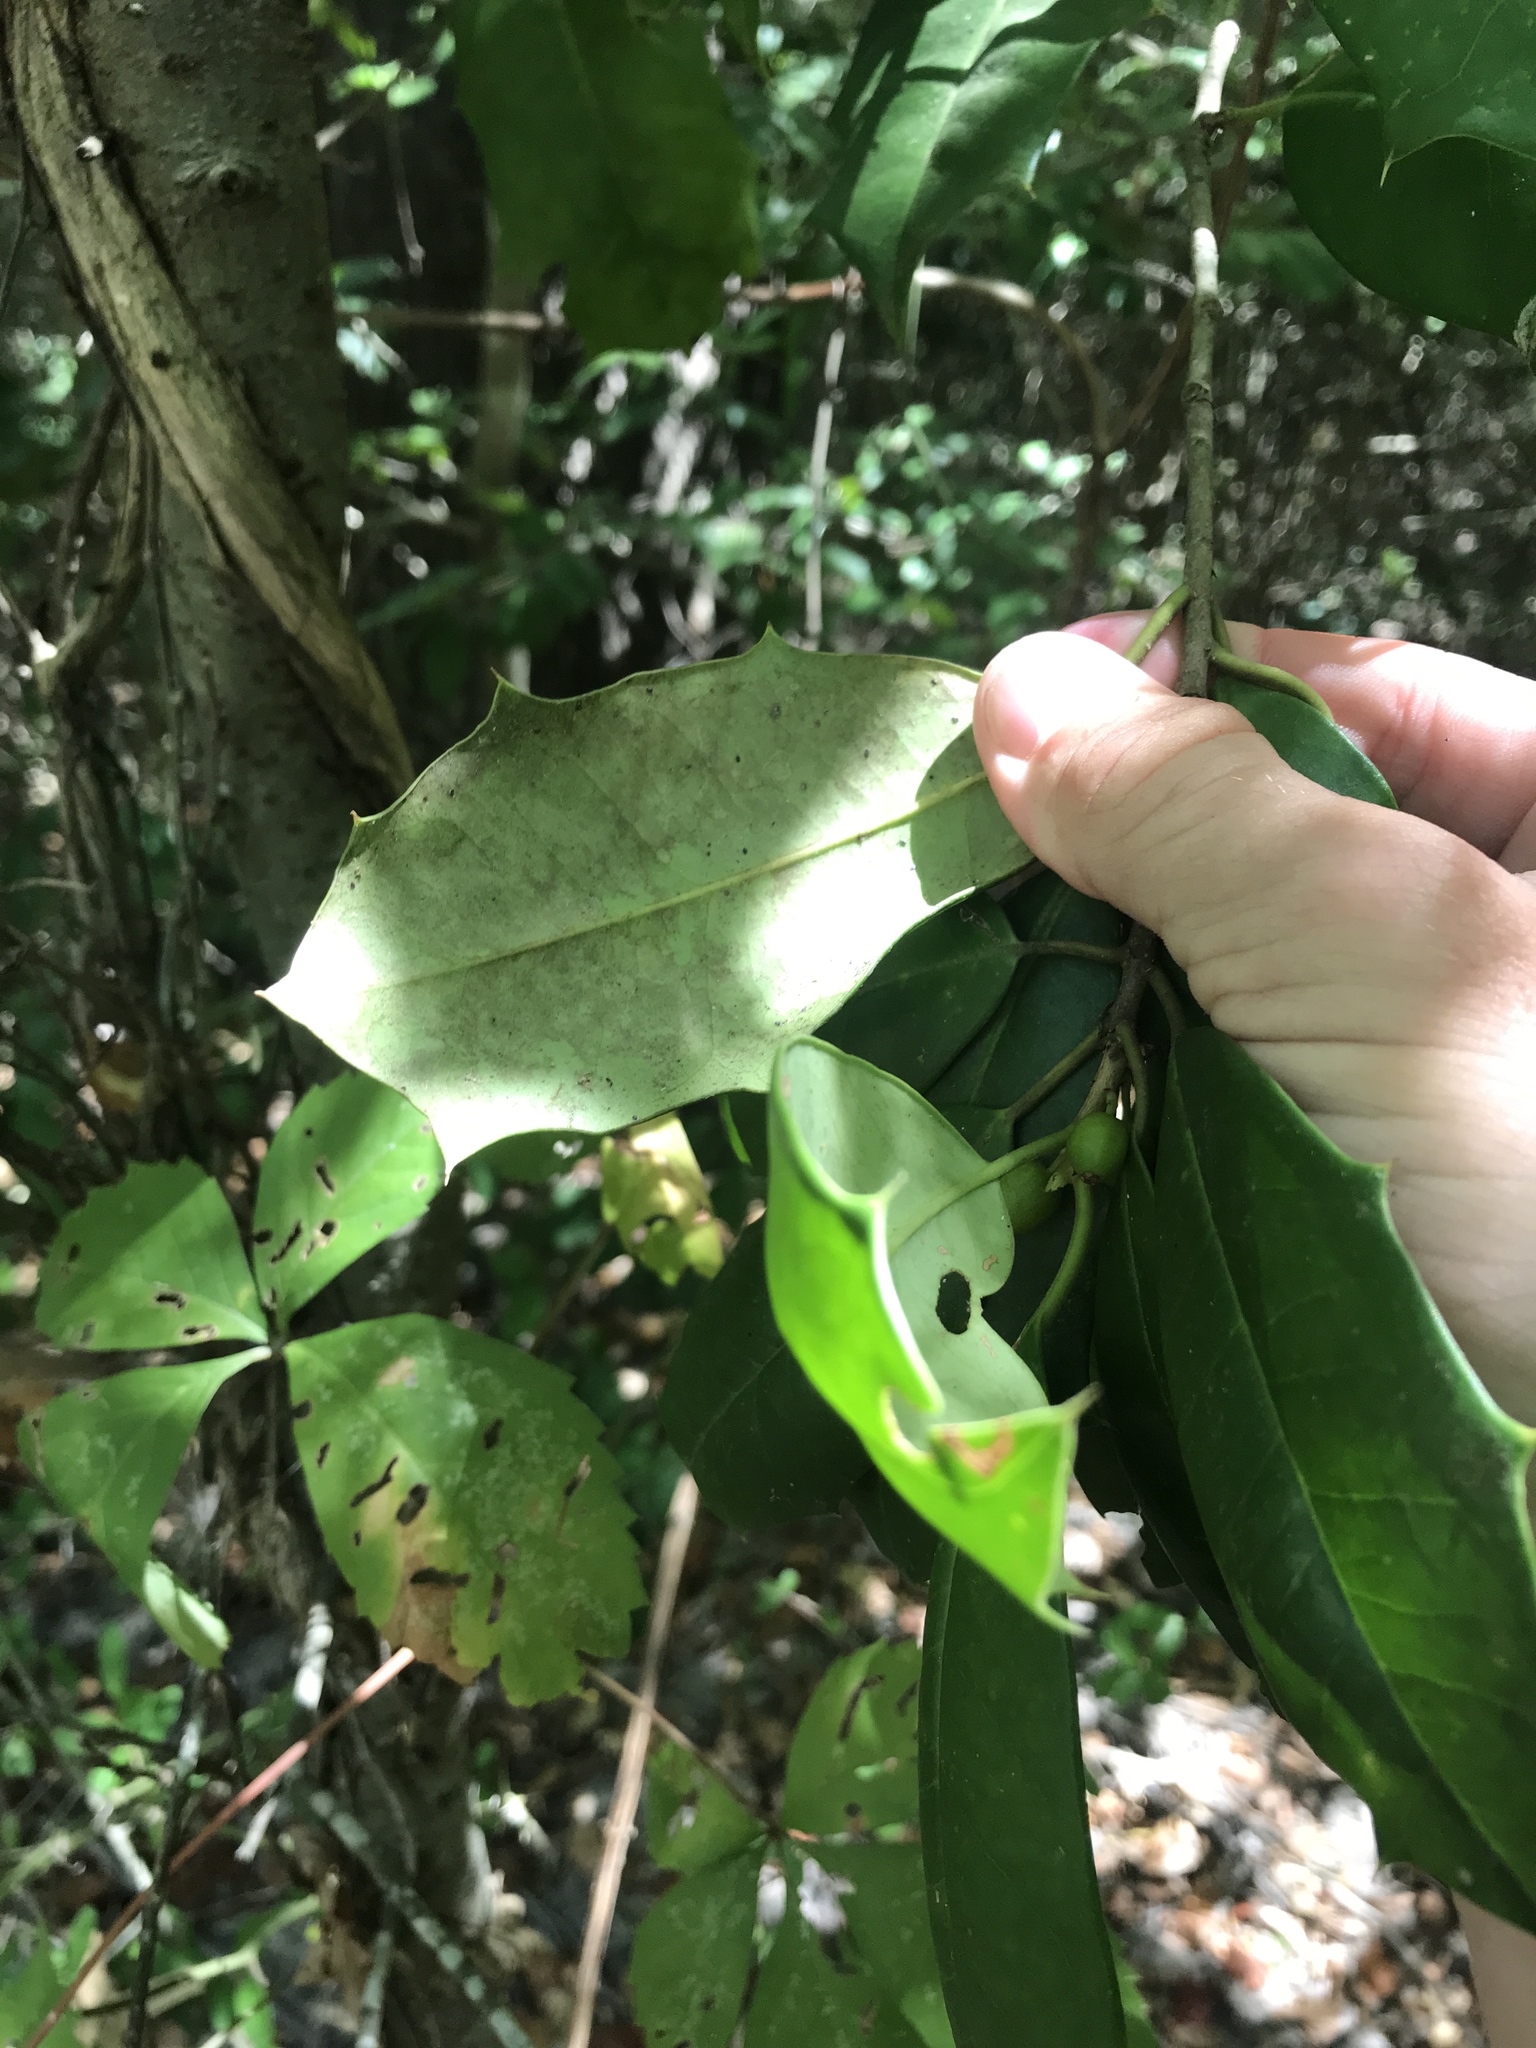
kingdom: Plantae
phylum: Tracheophyta
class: Magnoliopsida
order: Aquifoliales
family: Aquifoliaceae
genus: Ilex
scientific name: Ilex opaca
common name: American holly
